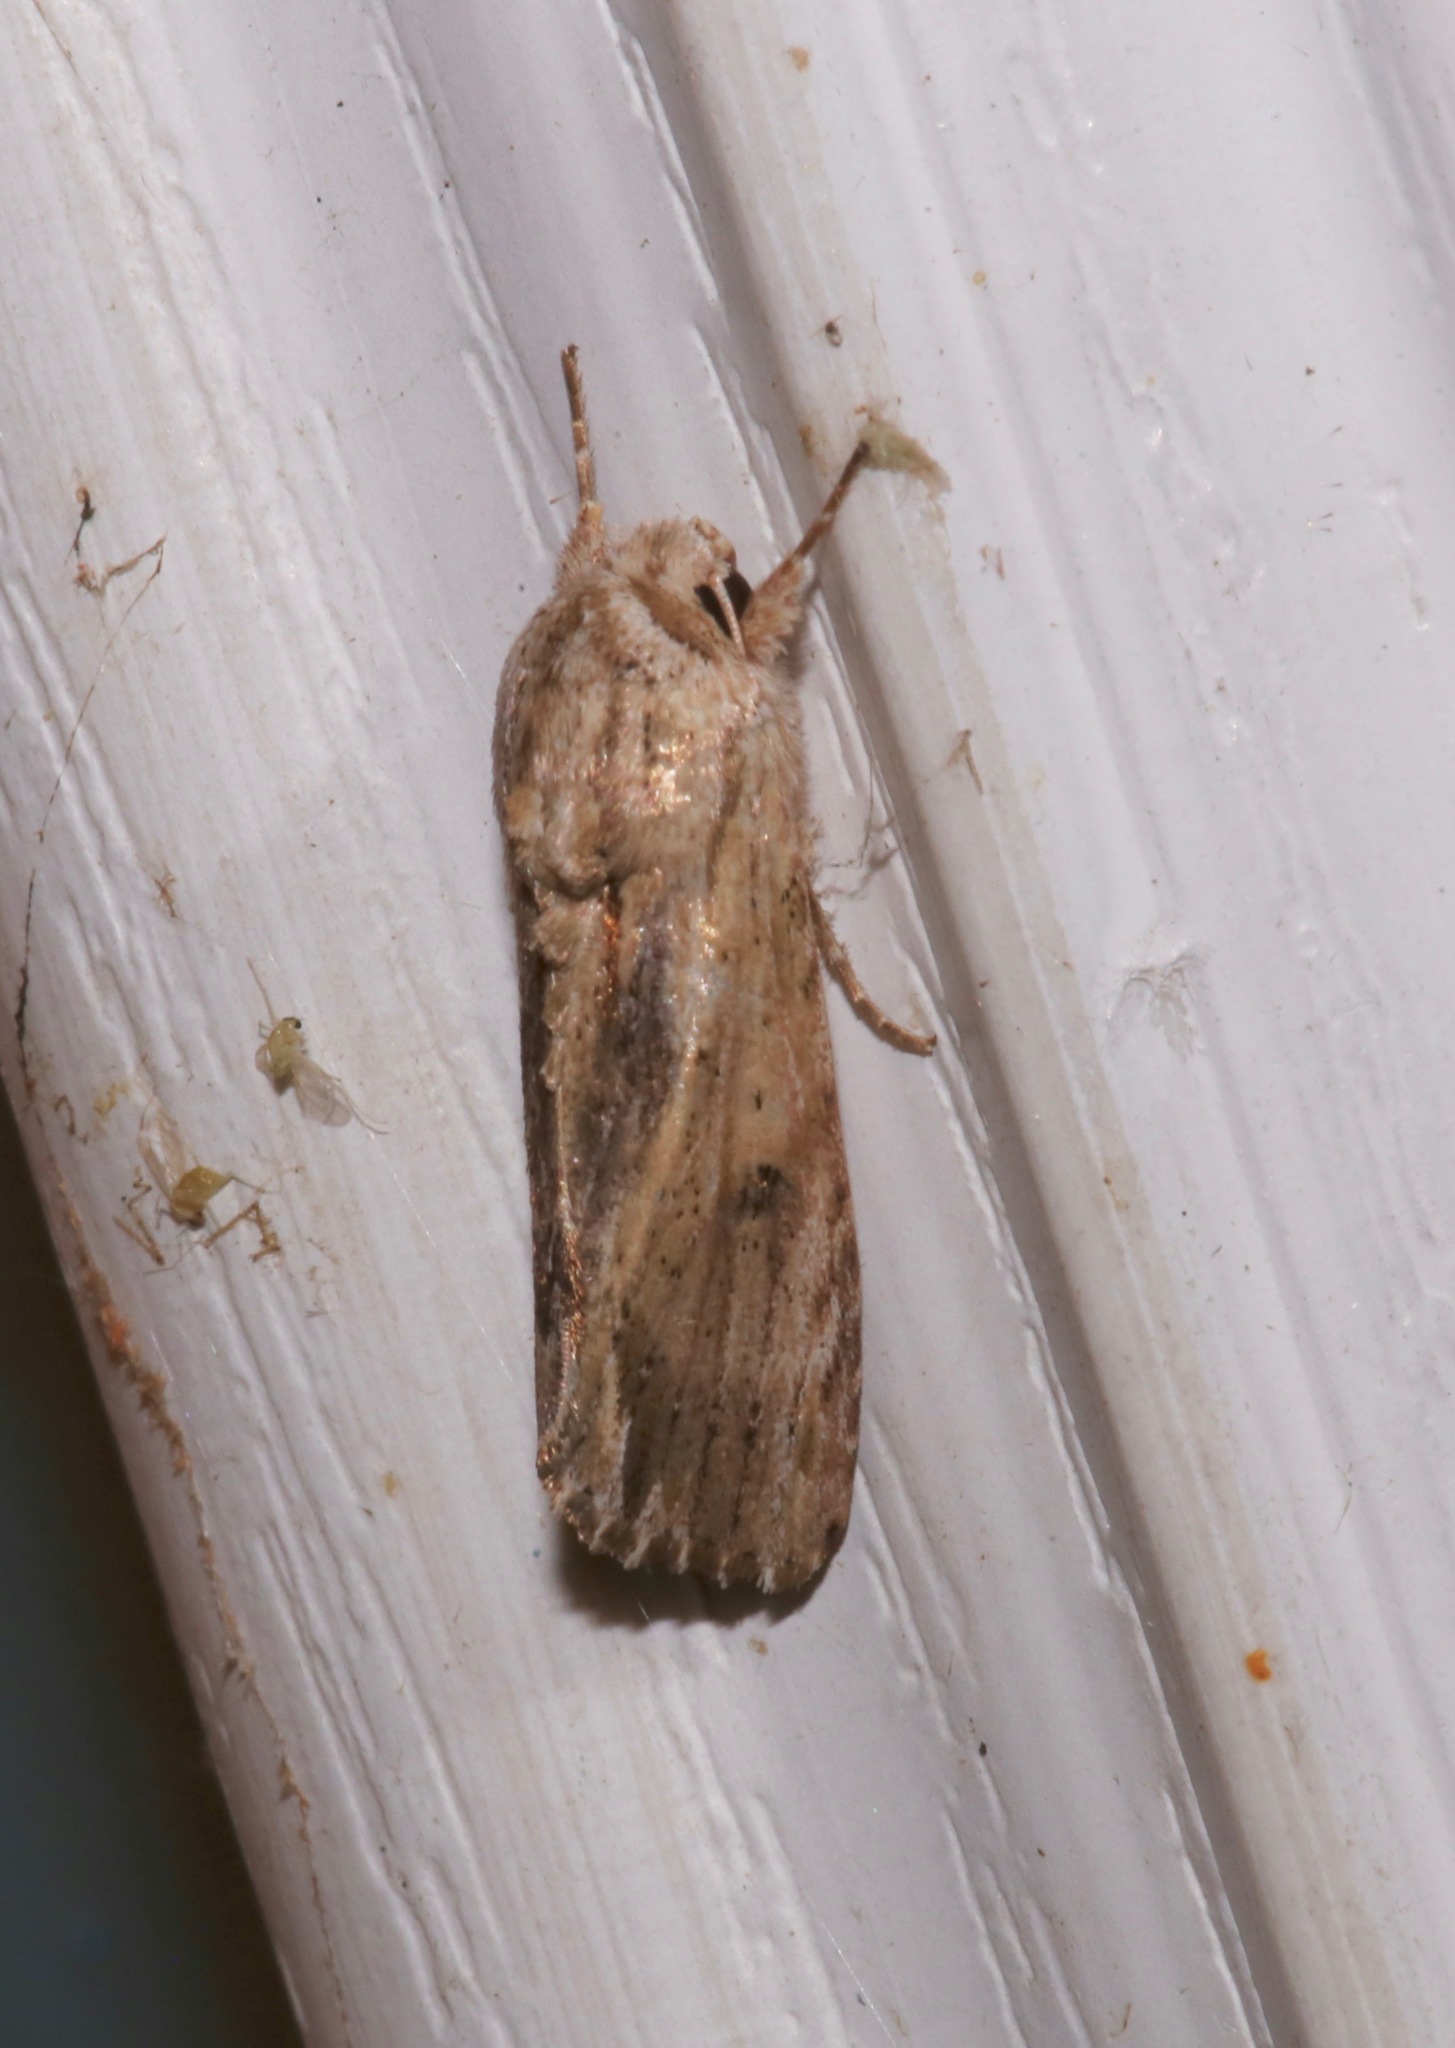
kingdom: Animalia
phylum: Arthropoda
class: Insecta
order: Lepidoptera
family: Noctuidae
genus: Spodoptera
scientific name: Spodoptera eridania
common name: Southern army worm
